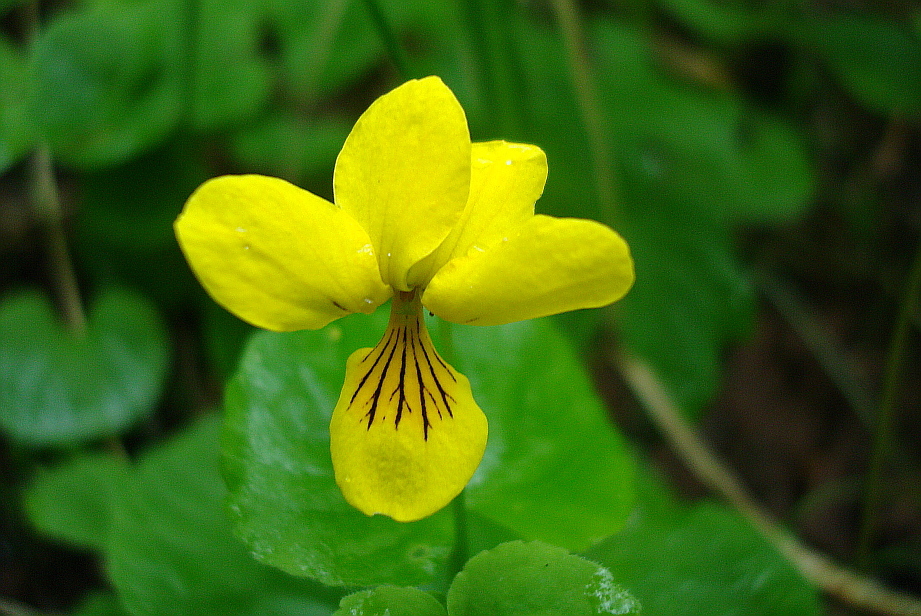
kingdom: Plantae
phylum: Tracheophyta
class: Magnoliopsida
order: Malpighiales
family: Violaceae
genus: Viola
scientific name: Viola biflora
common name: Alpine yellow violet
